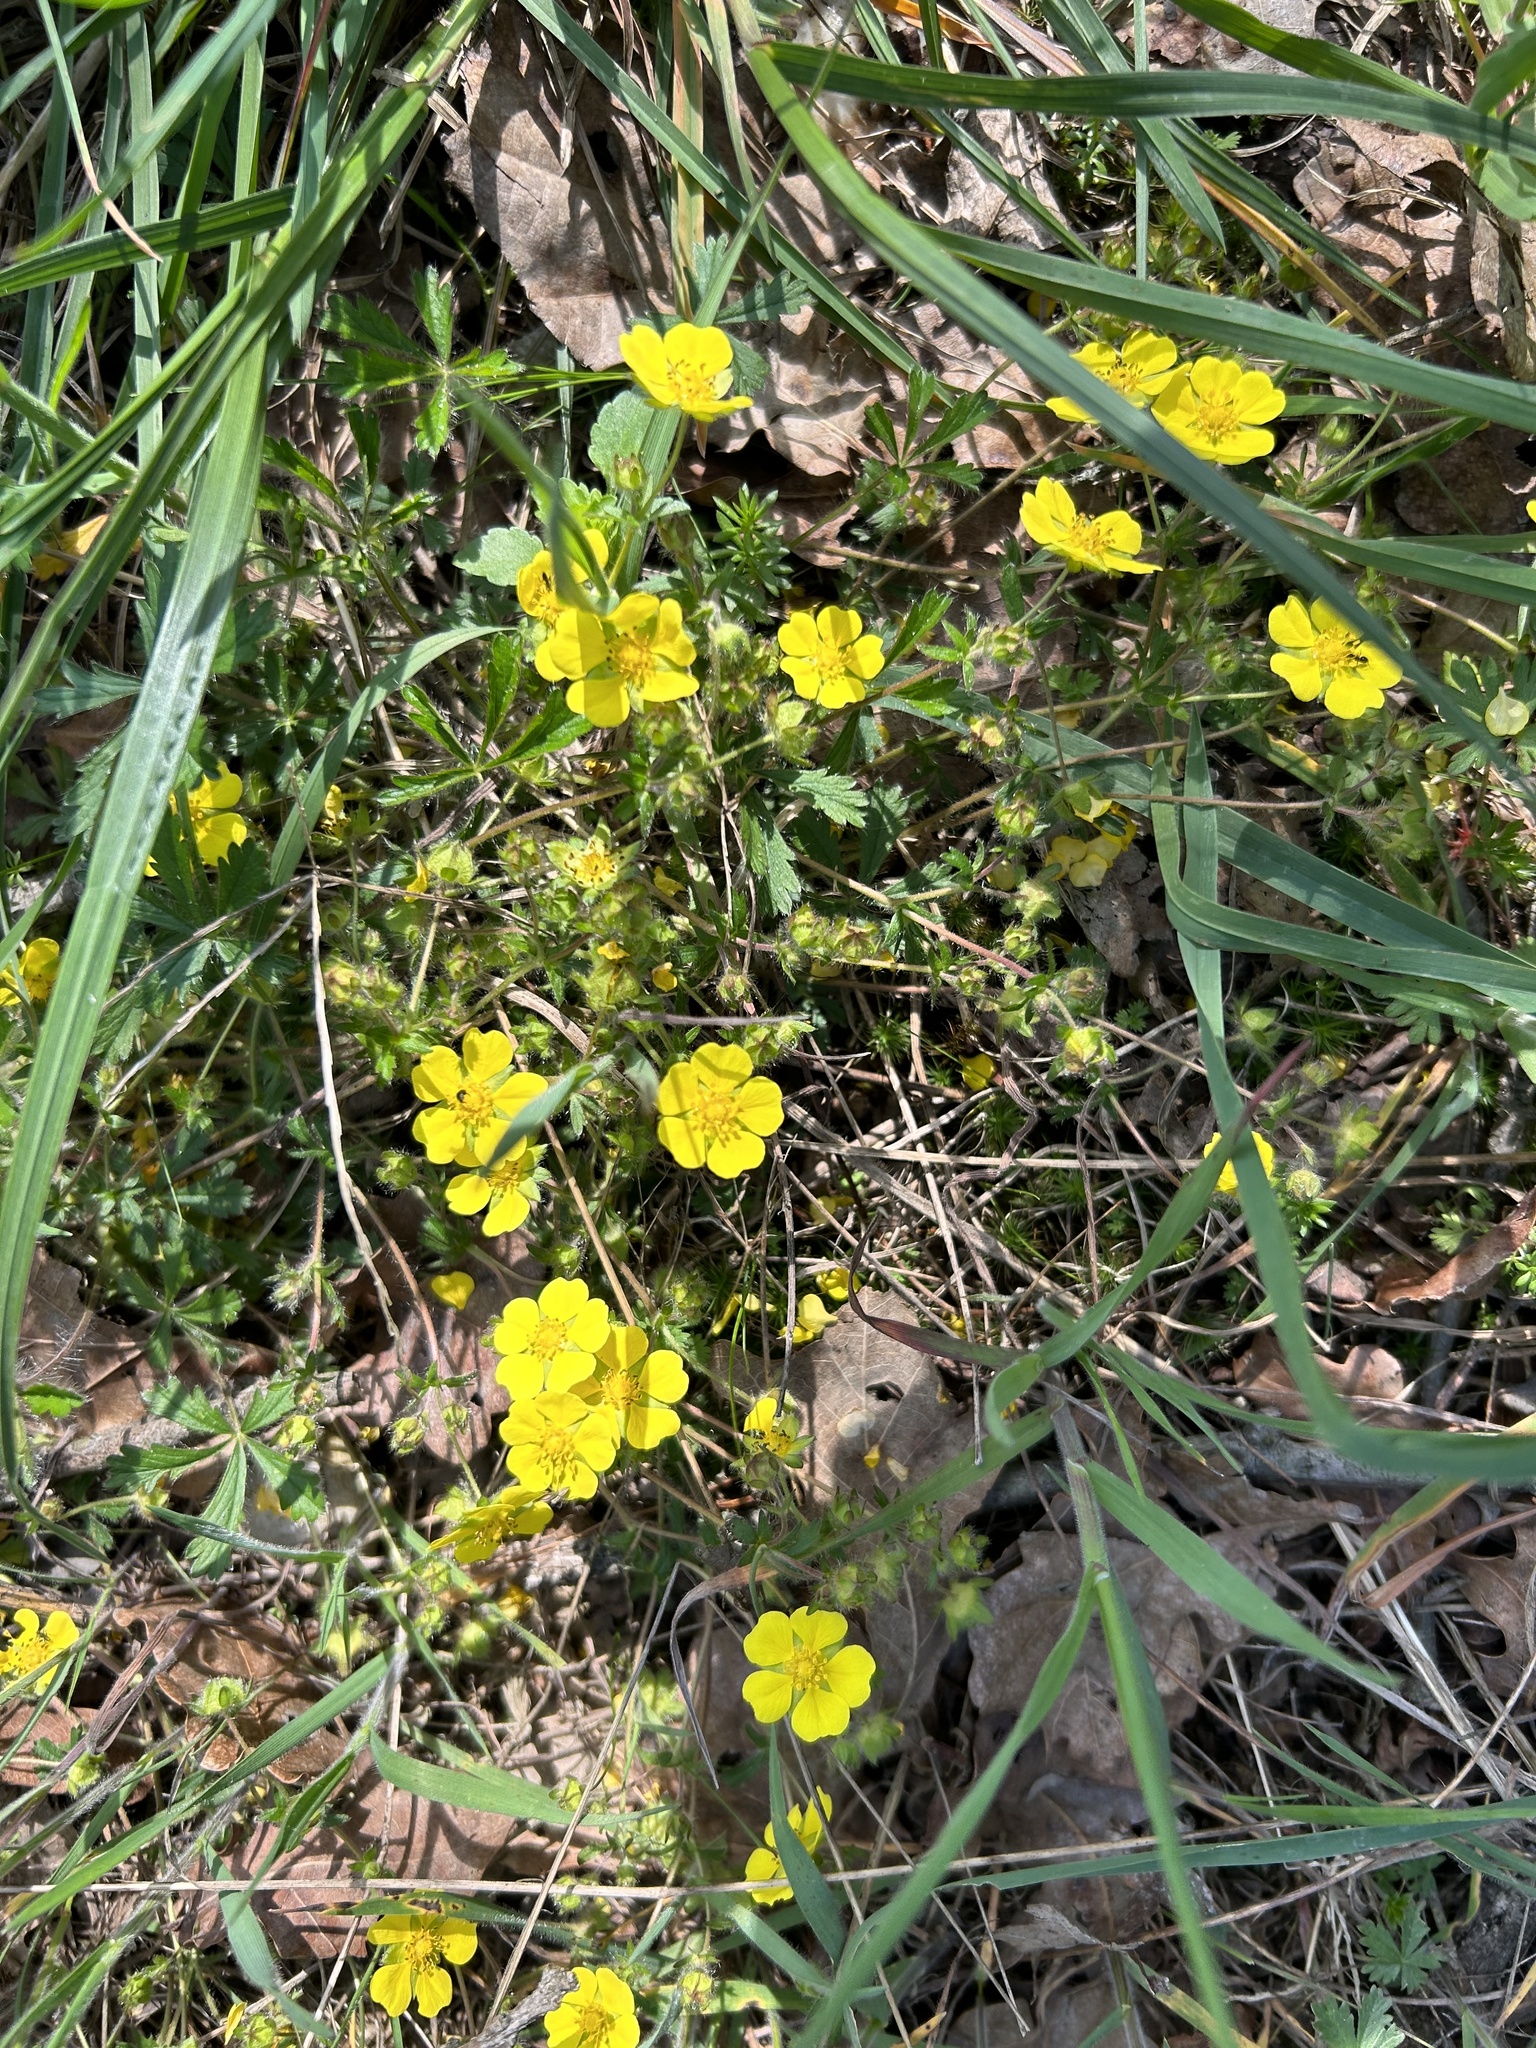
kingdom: Plantae
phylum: Tracheophyta
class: Magnoliopsida
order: Rosales
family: Rosaceae
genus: Potentilla
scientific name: Potentilla
